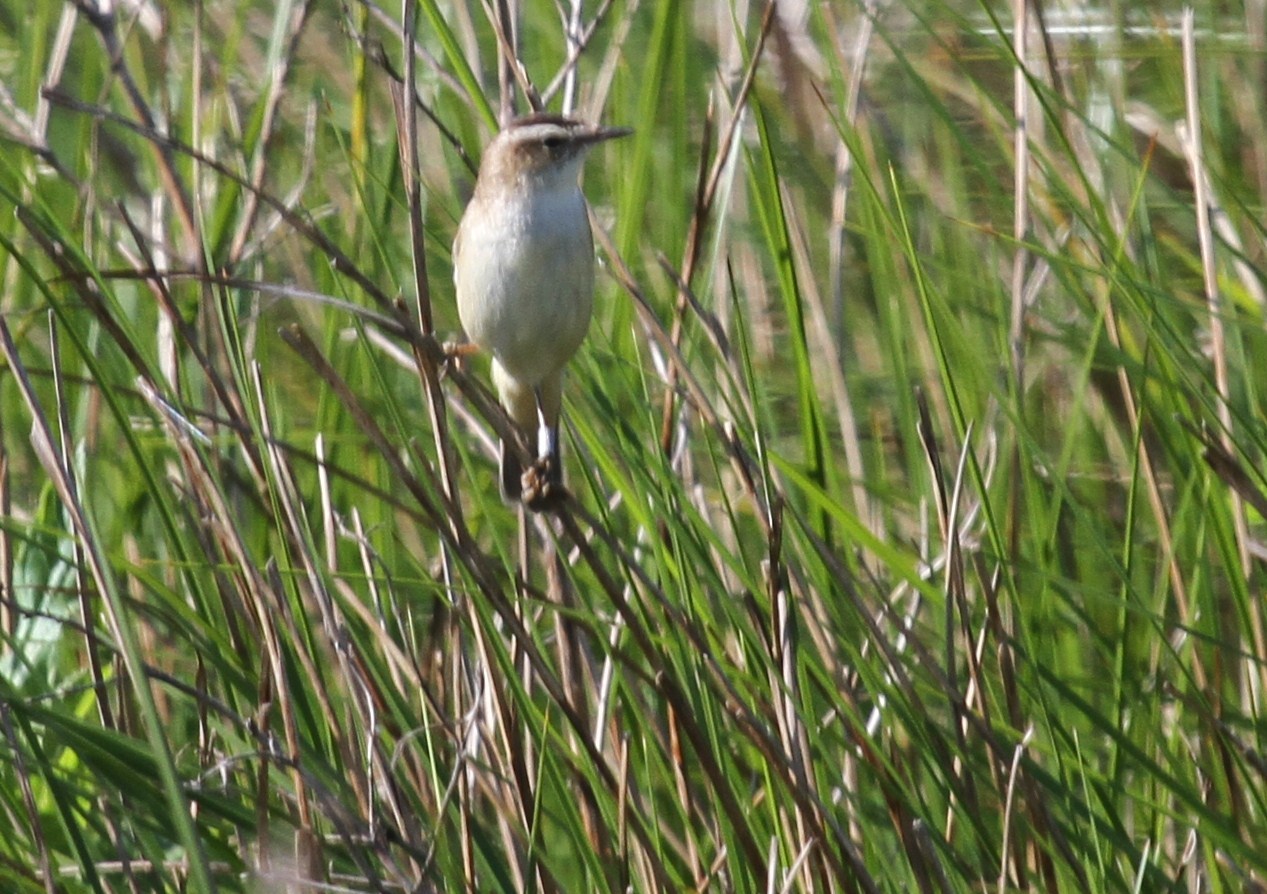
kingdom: Animalia
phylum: Chordata
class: Aves
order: Passeriformes
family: Acrocephalidae
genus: Acrocephalus
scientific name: Acrocephalus schoenobaenus
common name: Sedge warbler
